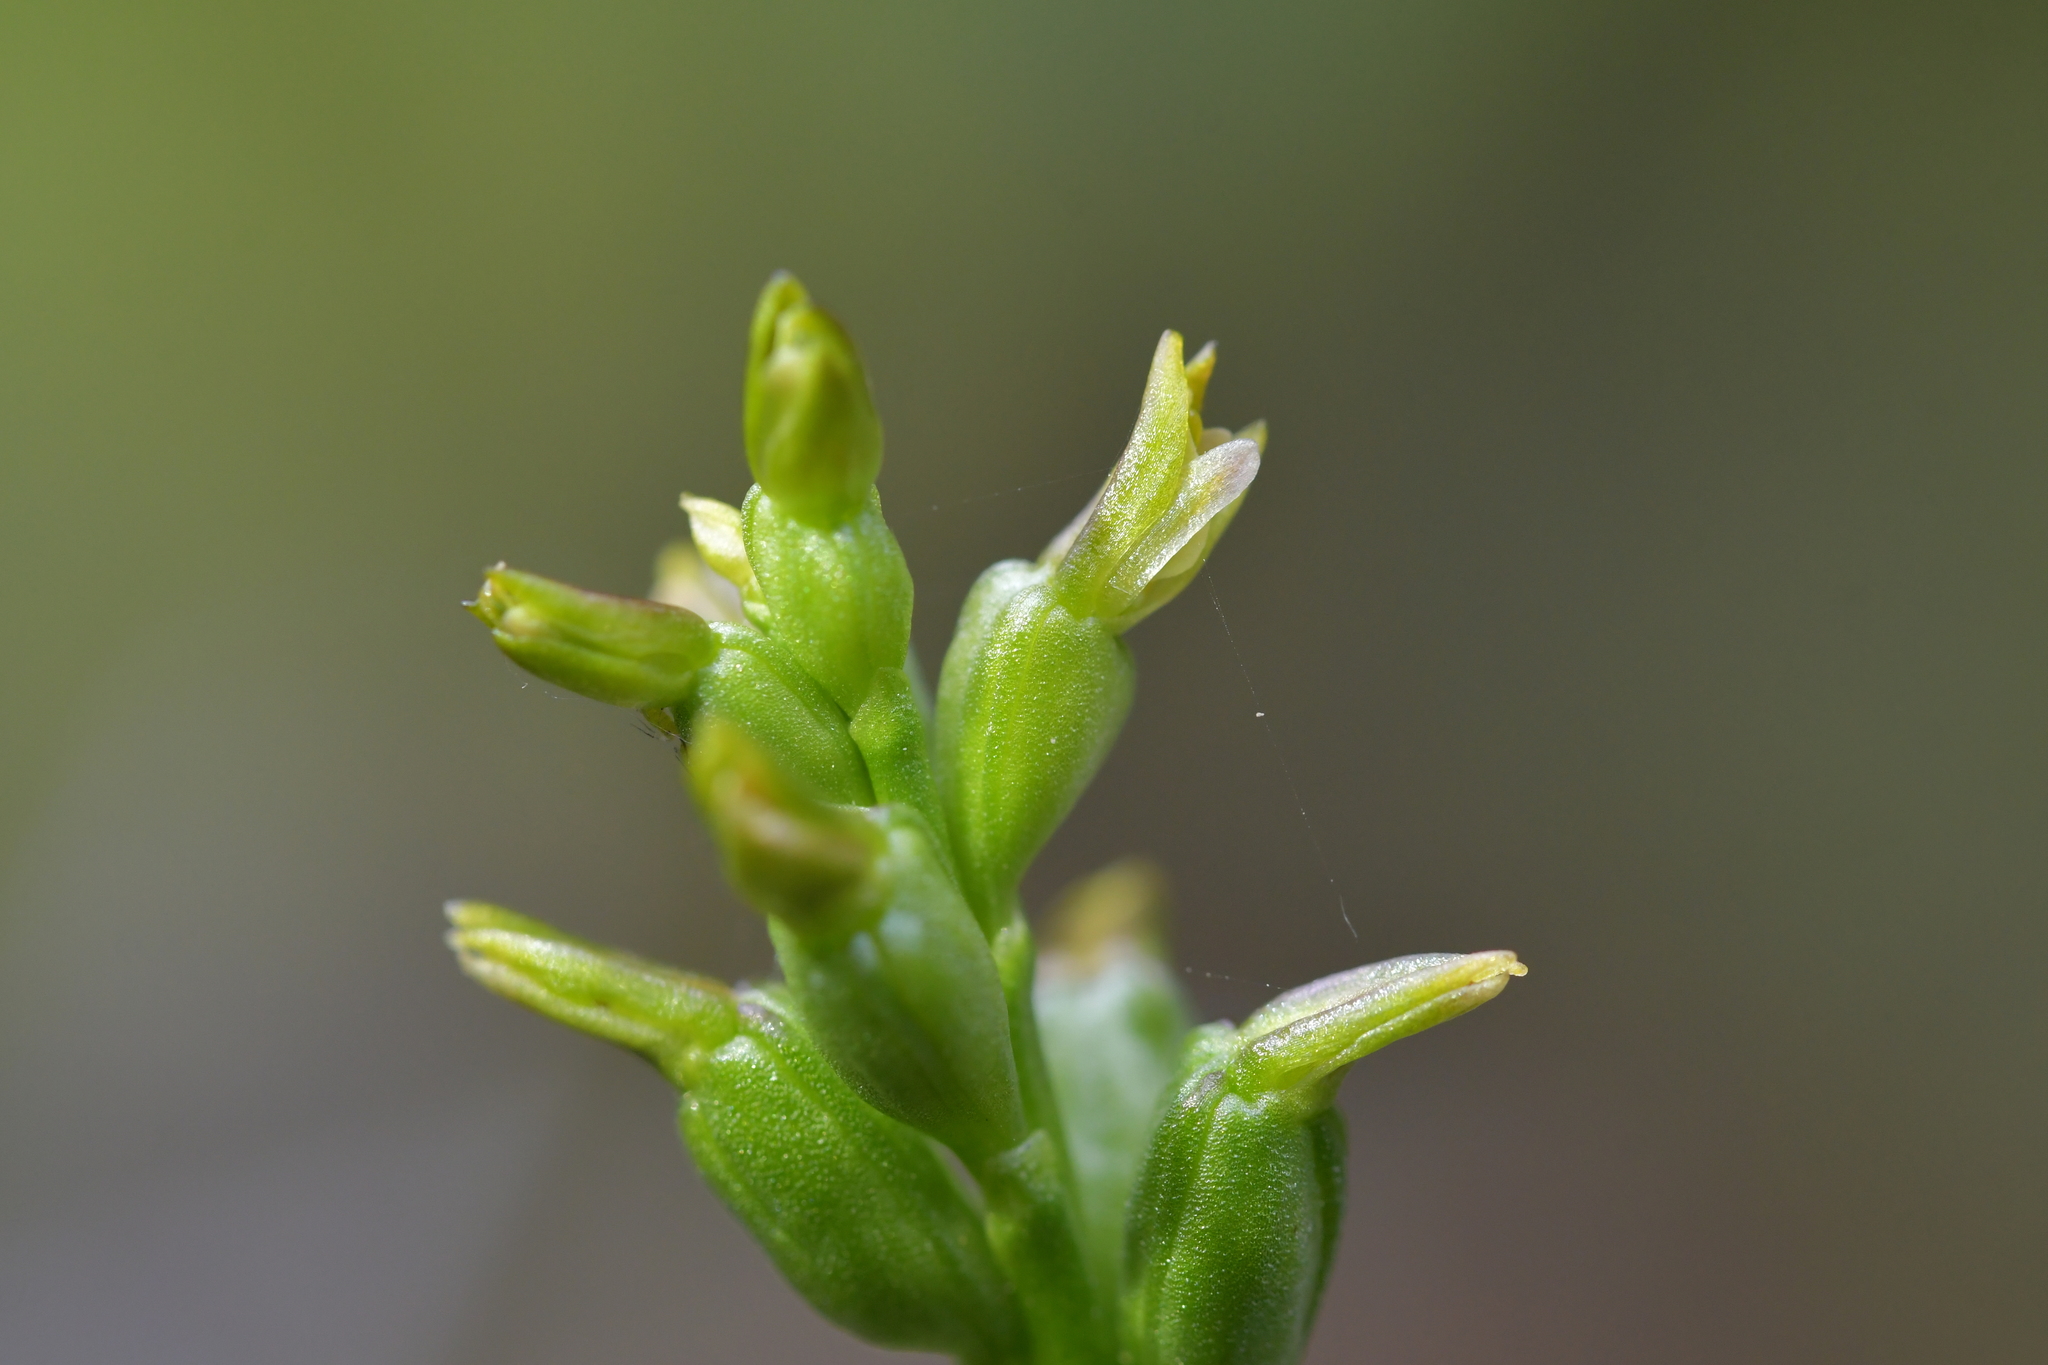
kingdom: Plantae
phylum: Tracheophyta
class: Liliopsida
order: Asparagales
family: Orchidaceae
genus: Prasophyllum
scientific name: Prasophyllum colensoi
